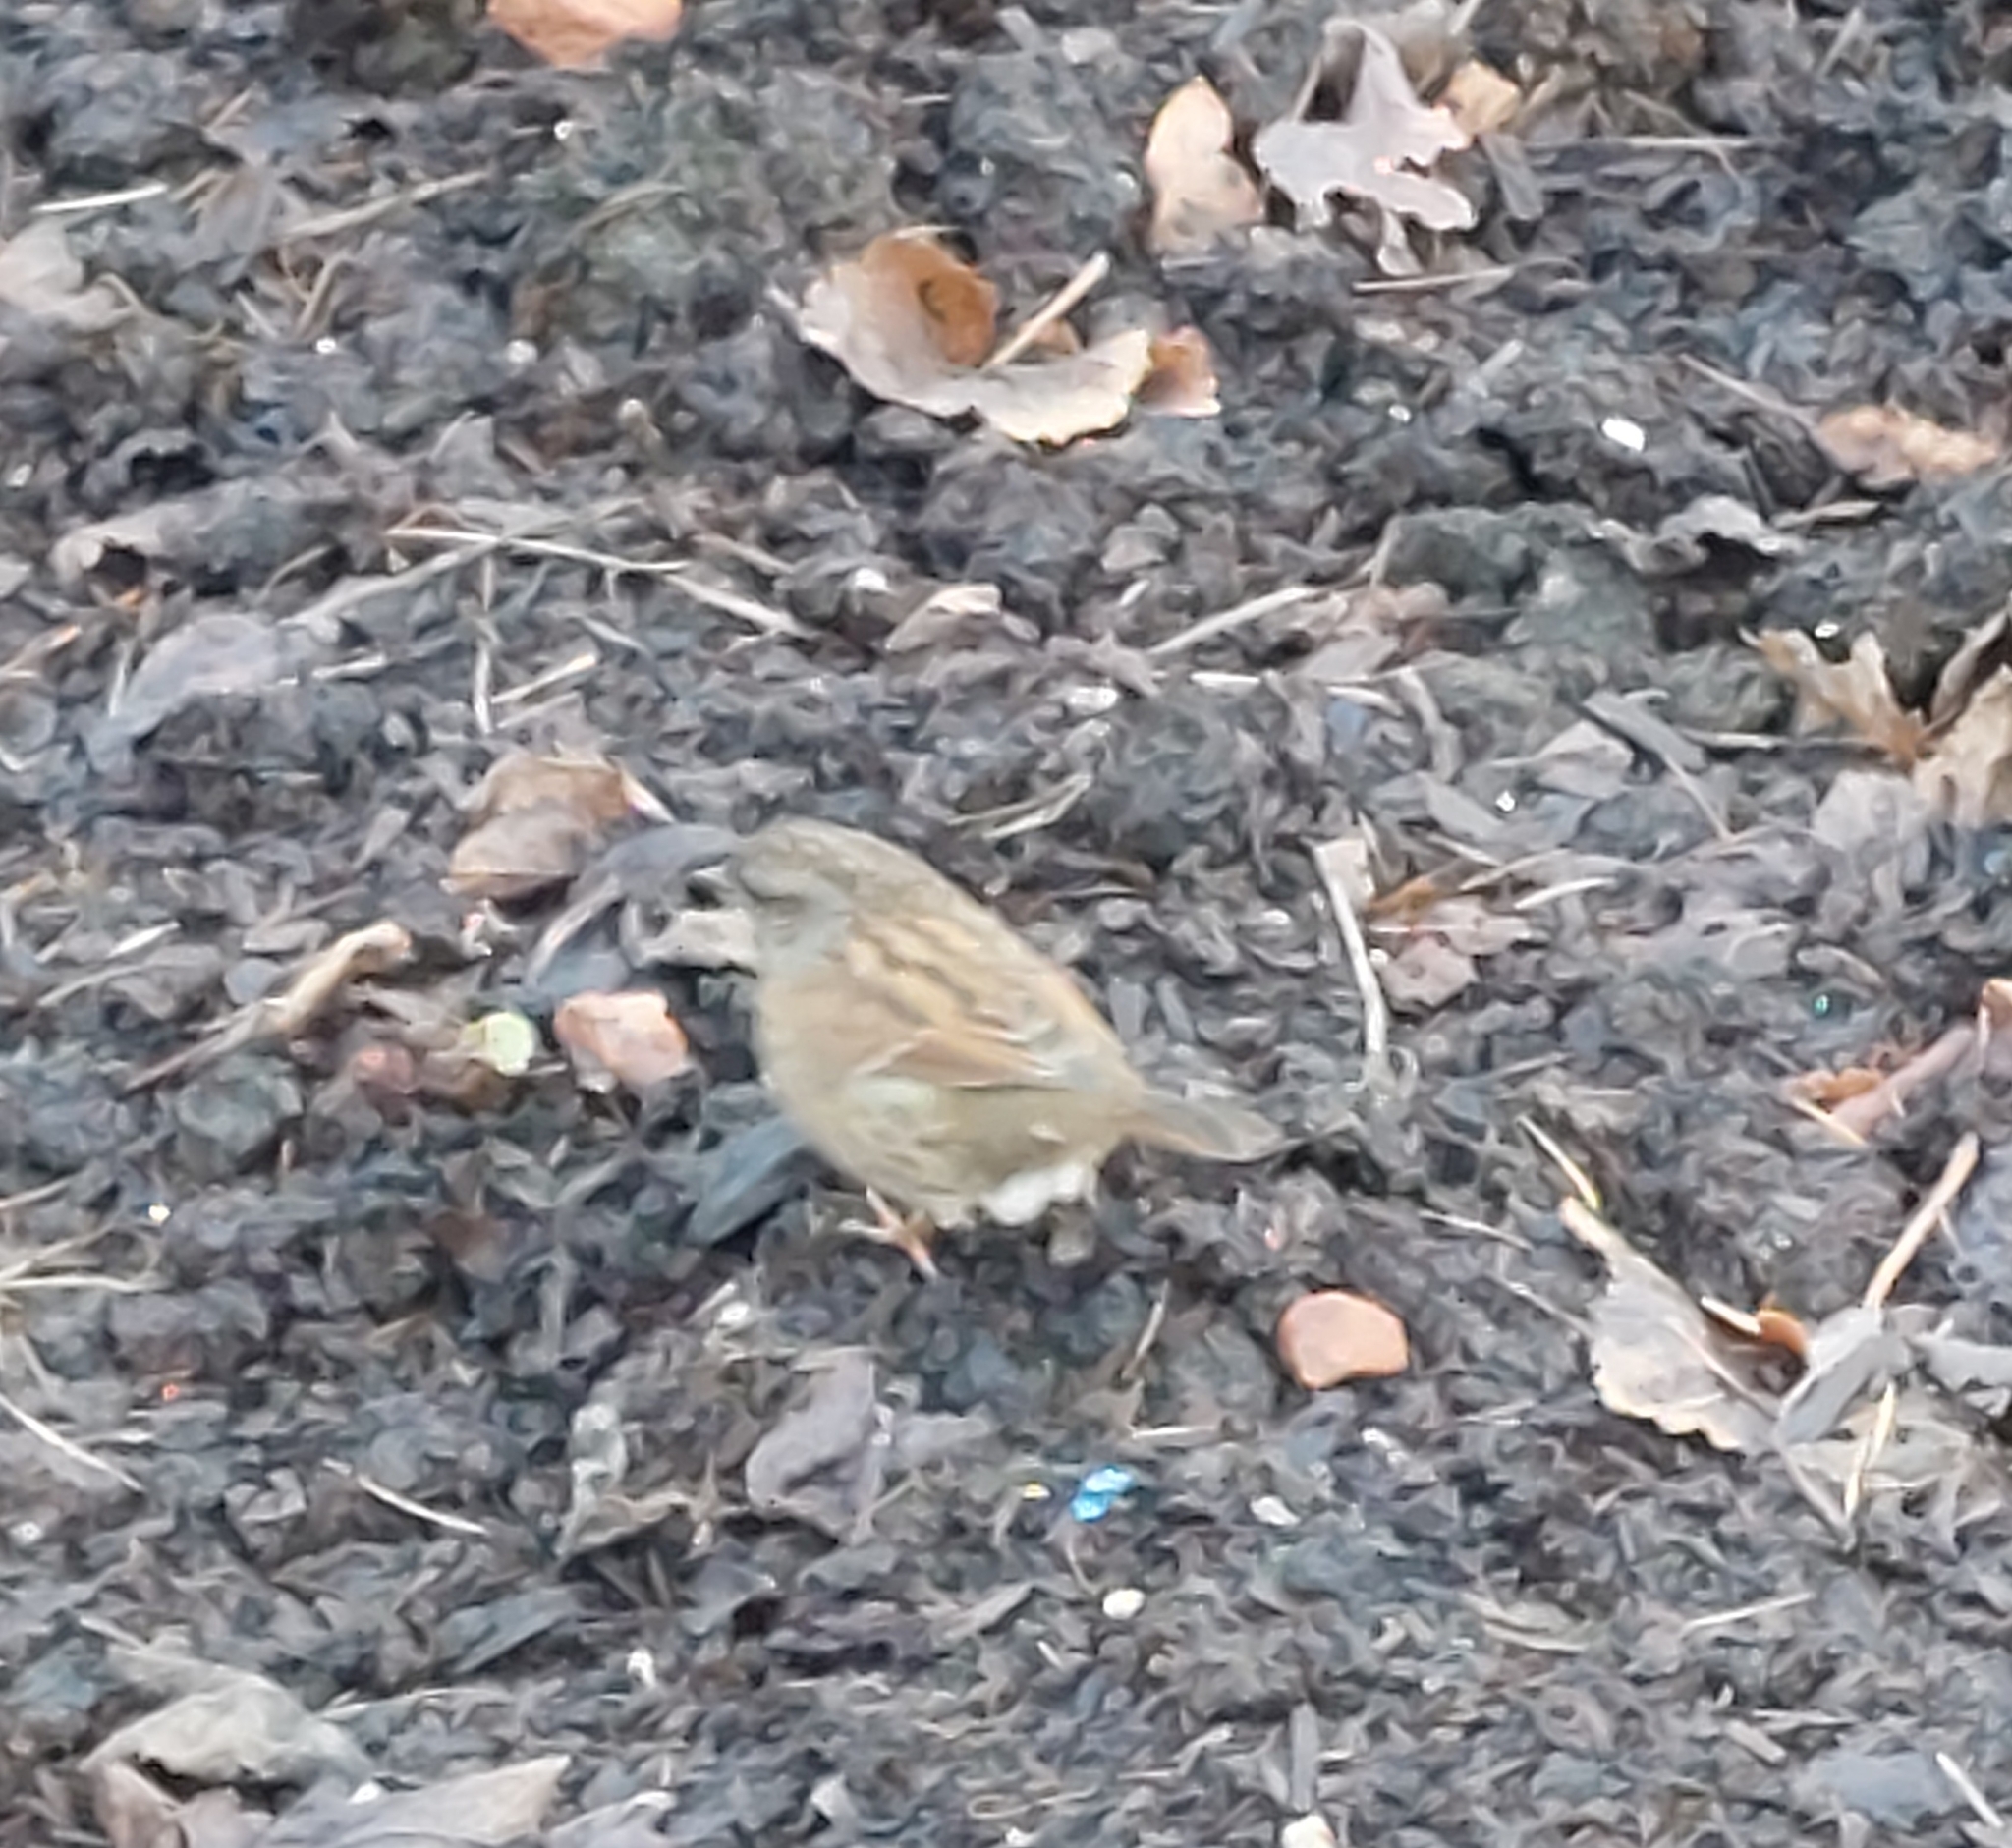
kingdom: Animalia
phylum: Chordata
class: Aves
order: Passeriformes
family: Prunellidae
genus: Prunella
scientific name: Prunella modularis
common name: Dunnock
